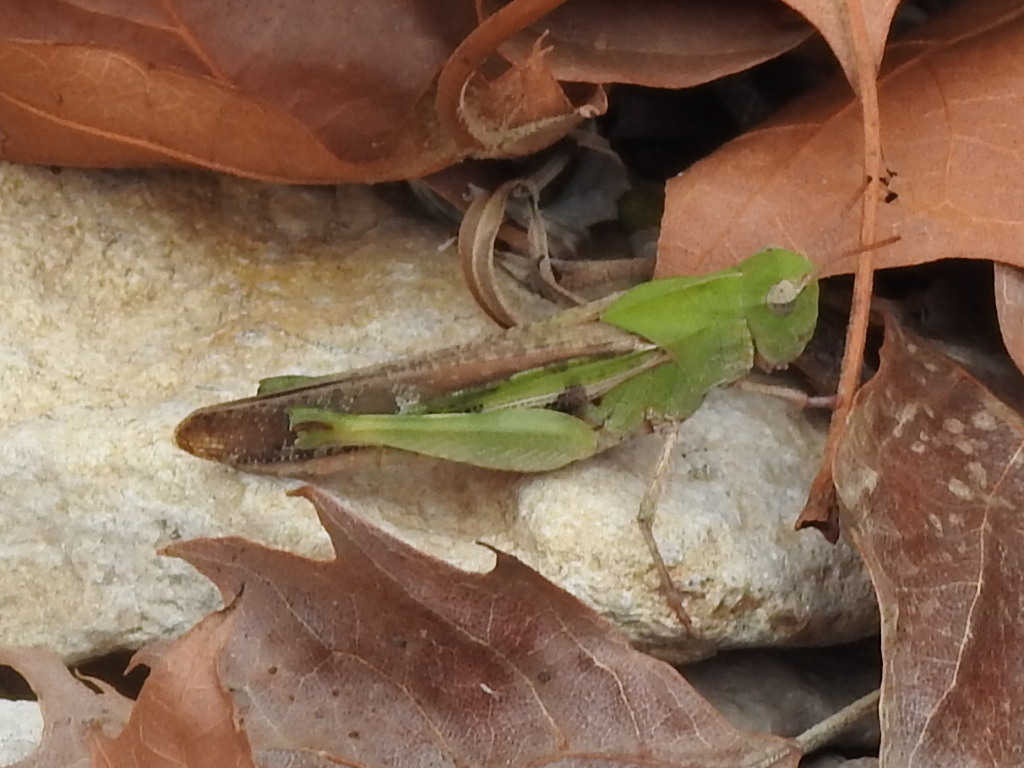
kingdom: Animalia
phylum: Arthropoda
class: Insecta
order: Orthoptera
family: Acrididae
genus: Chortophaga
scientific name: Chortophaga viridifasciata
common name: Green-striped grasshopper
